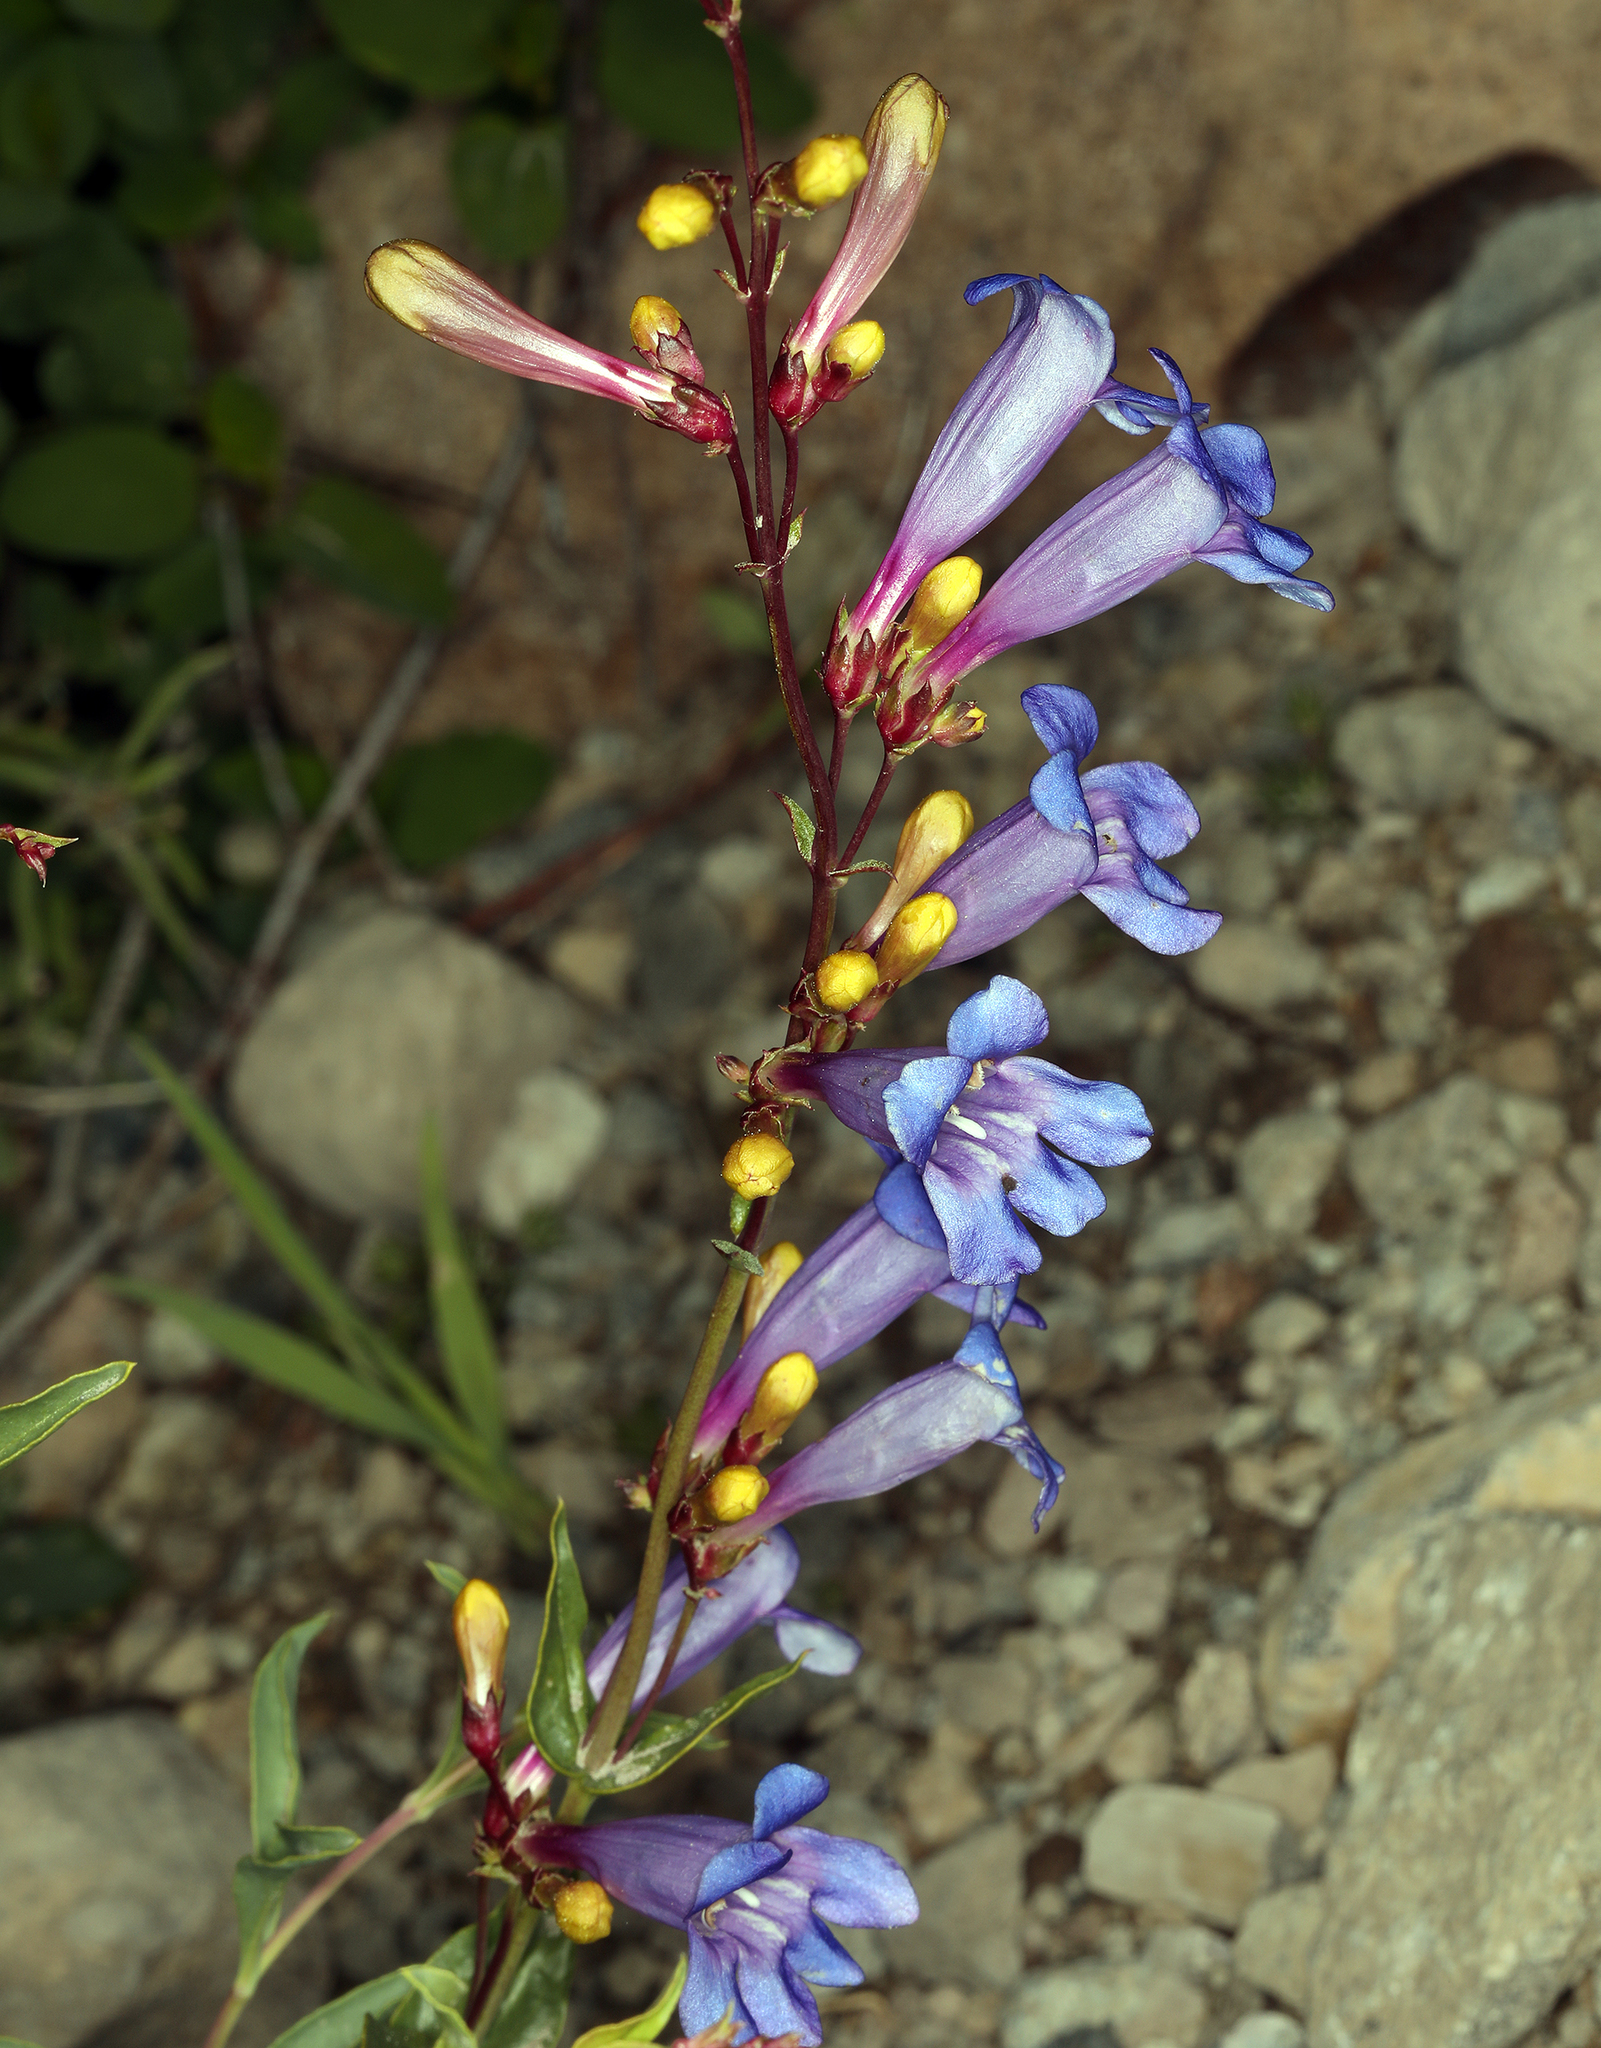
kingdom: Plantae
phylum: Tracheophyta
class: Magnoliopsida
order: Lamiales
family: Plantaginaceae
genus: Penstemon
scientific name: Penstemon azureus
